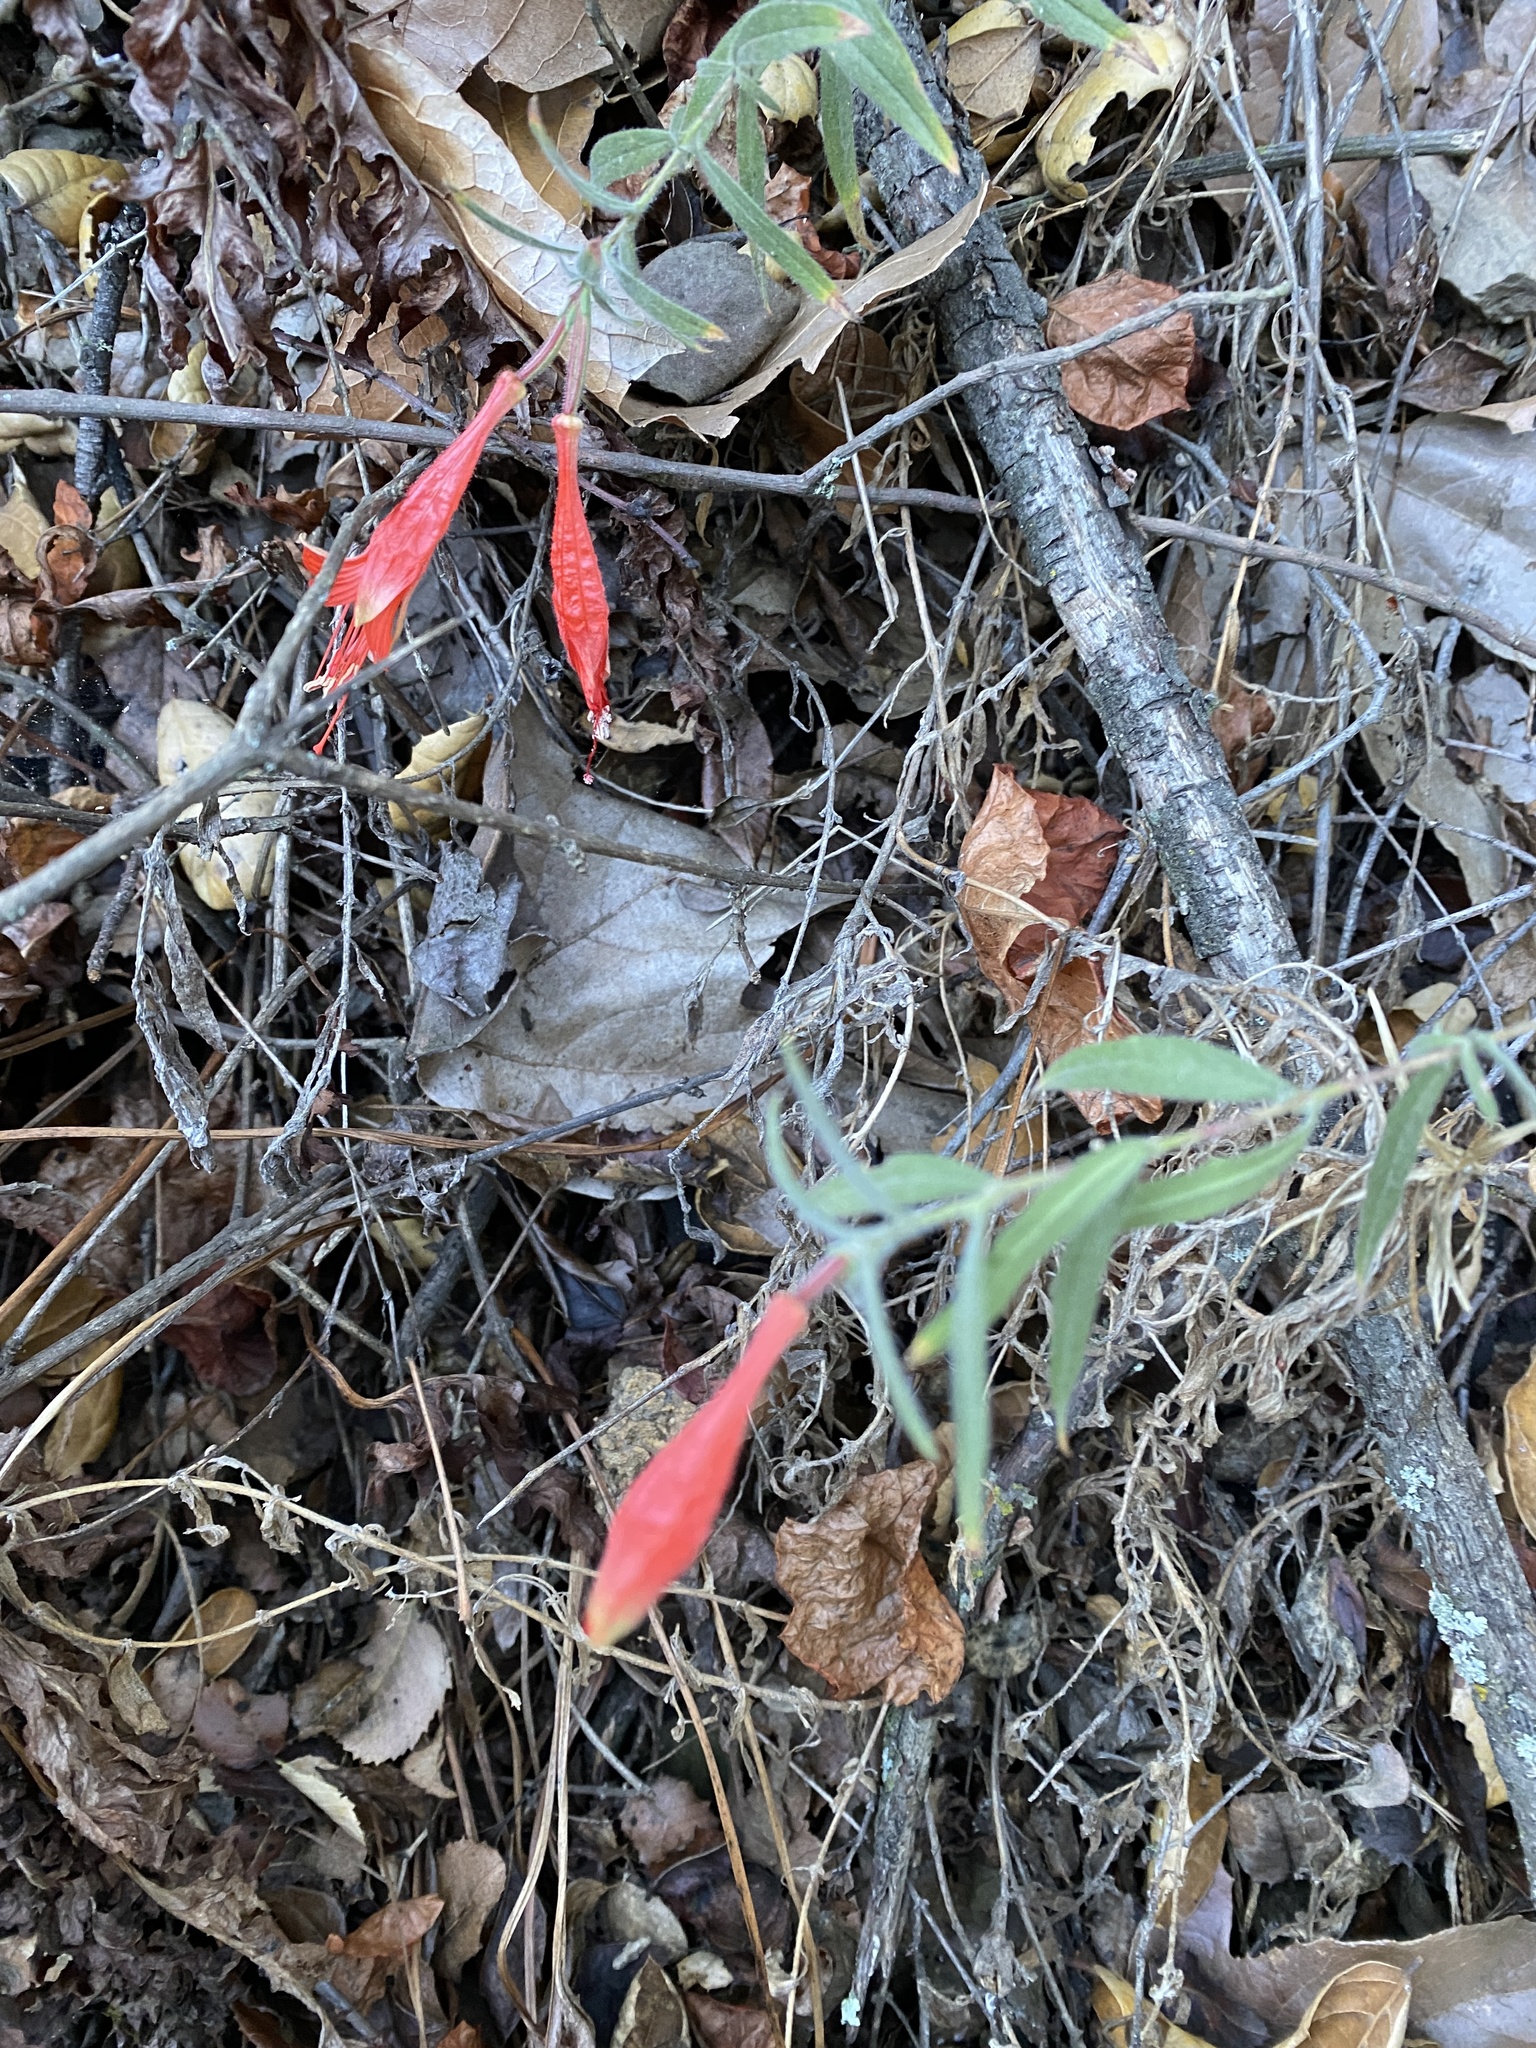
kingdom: Plantae
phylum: Tracheophyta
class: Magnoliopsida
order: Myrtales
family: Onagraceae
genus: Epilobium
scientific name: Epilobium canum
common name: California-fuchsia
